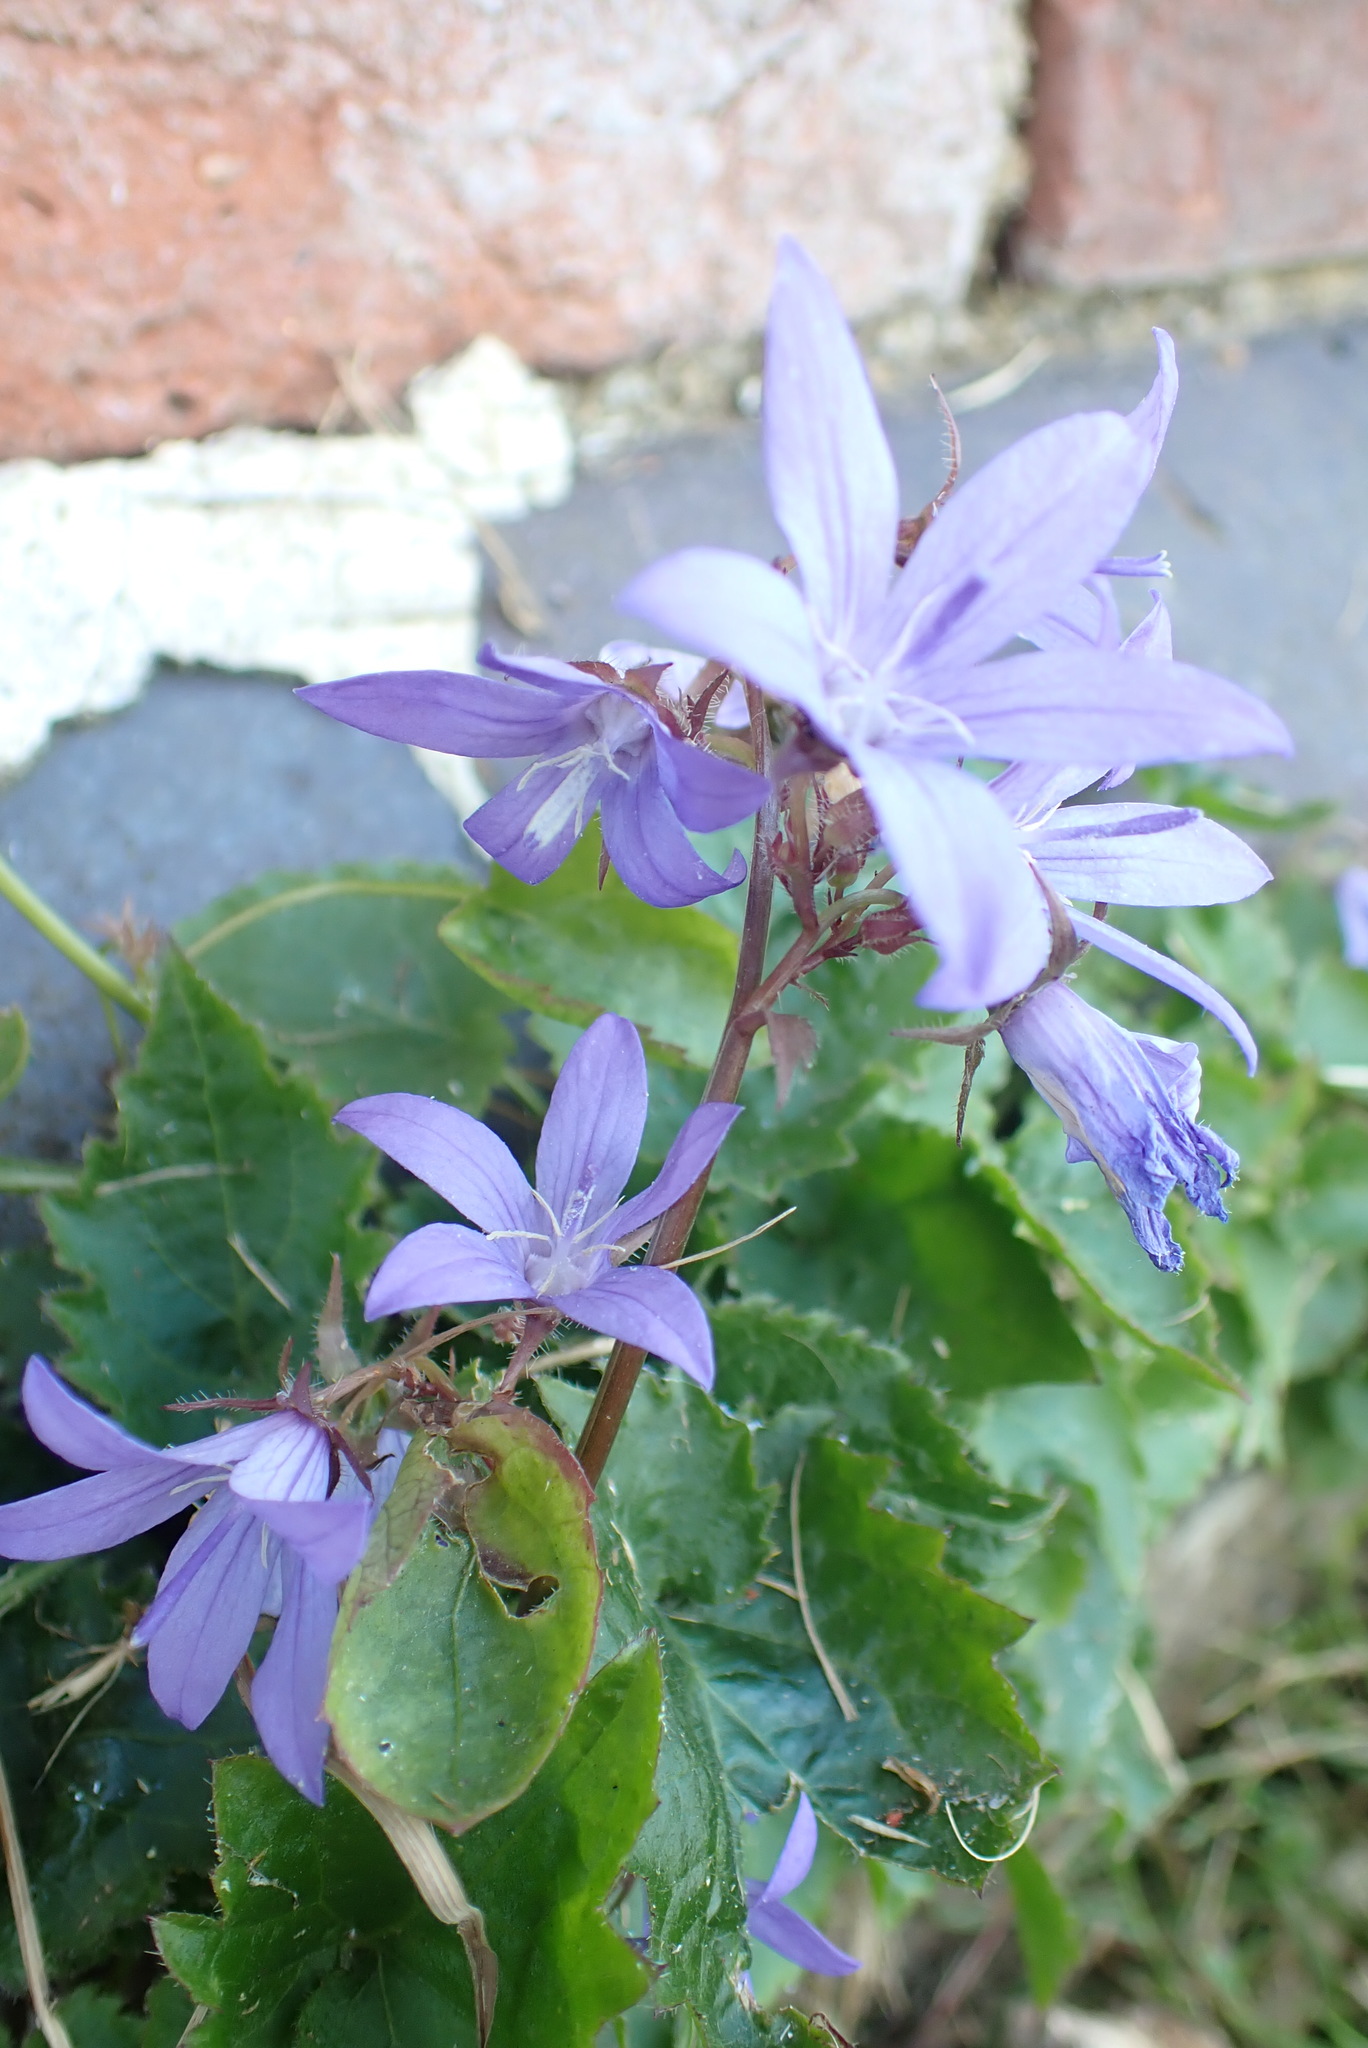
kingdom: Plantae
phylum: Tracheophyta
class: Magnoliopsida
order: Asterales
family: Campanulaceae
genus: Campanula
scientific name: Campanula poscharskyana
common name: Trailing bellflower
